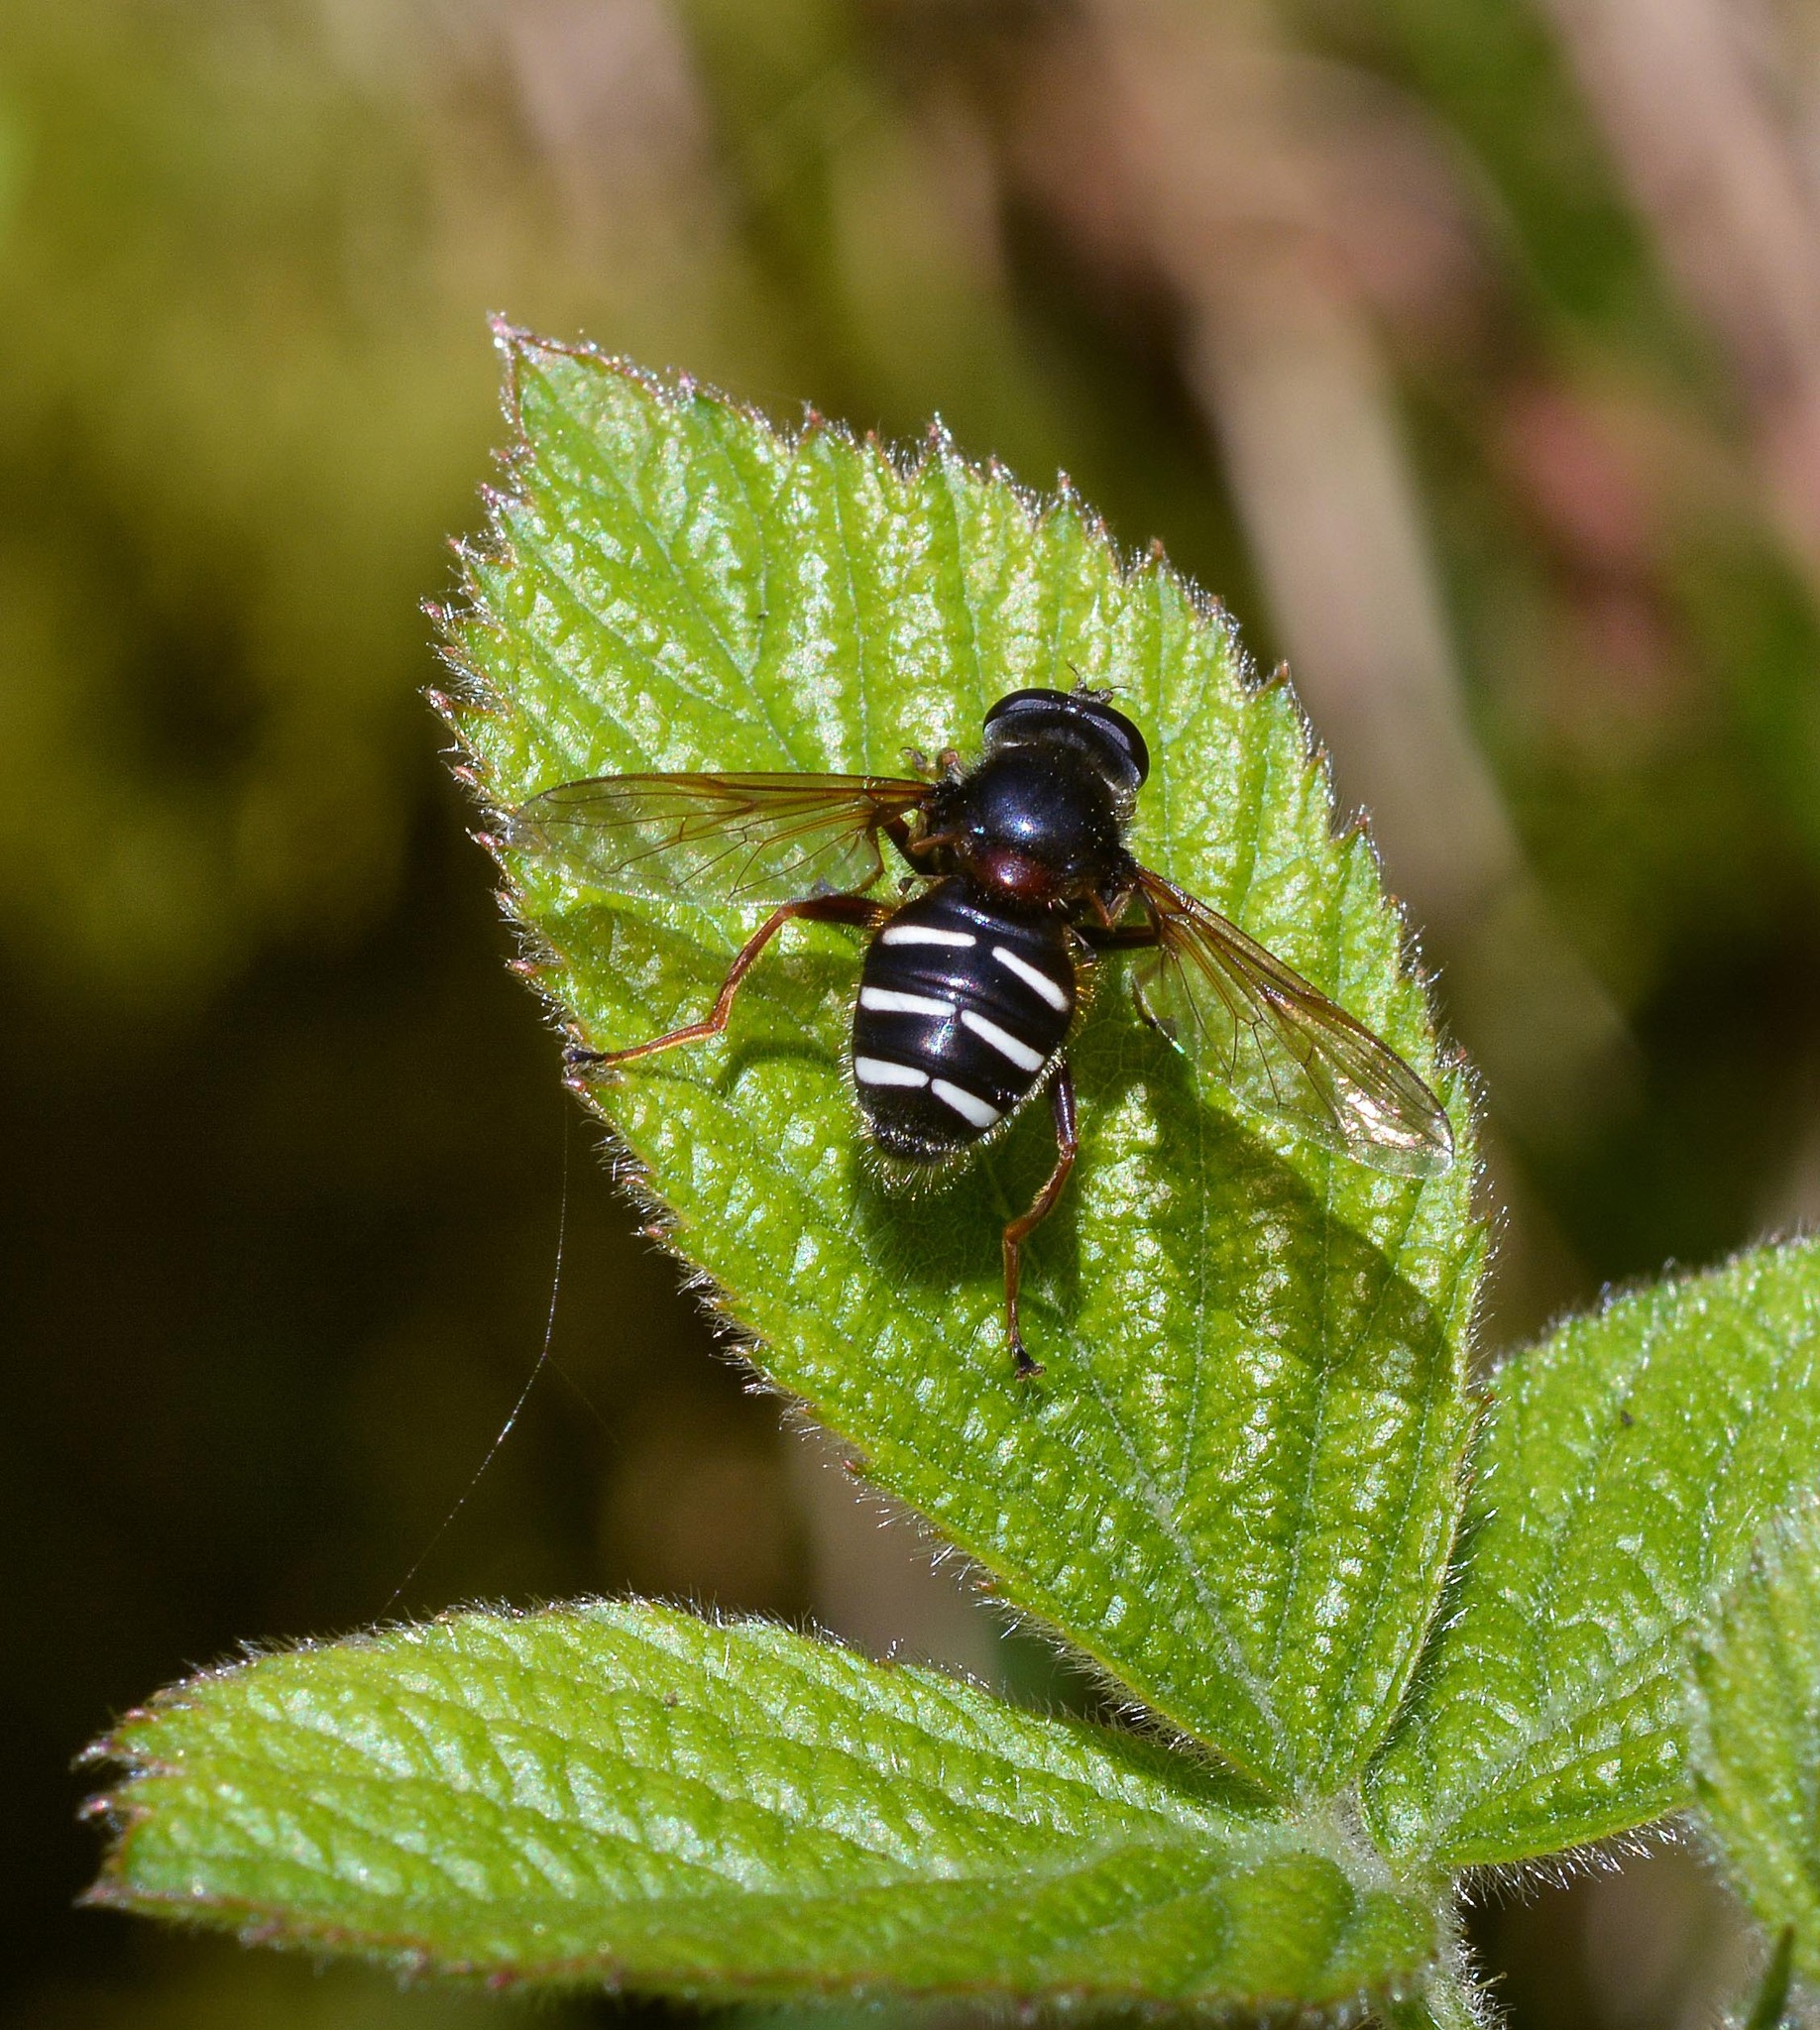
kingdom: Animalia
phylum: Arthropoda
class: Insecta
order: Diptera
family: Syrphidae
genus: Sericomyia
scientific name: Sericomyia lappona
